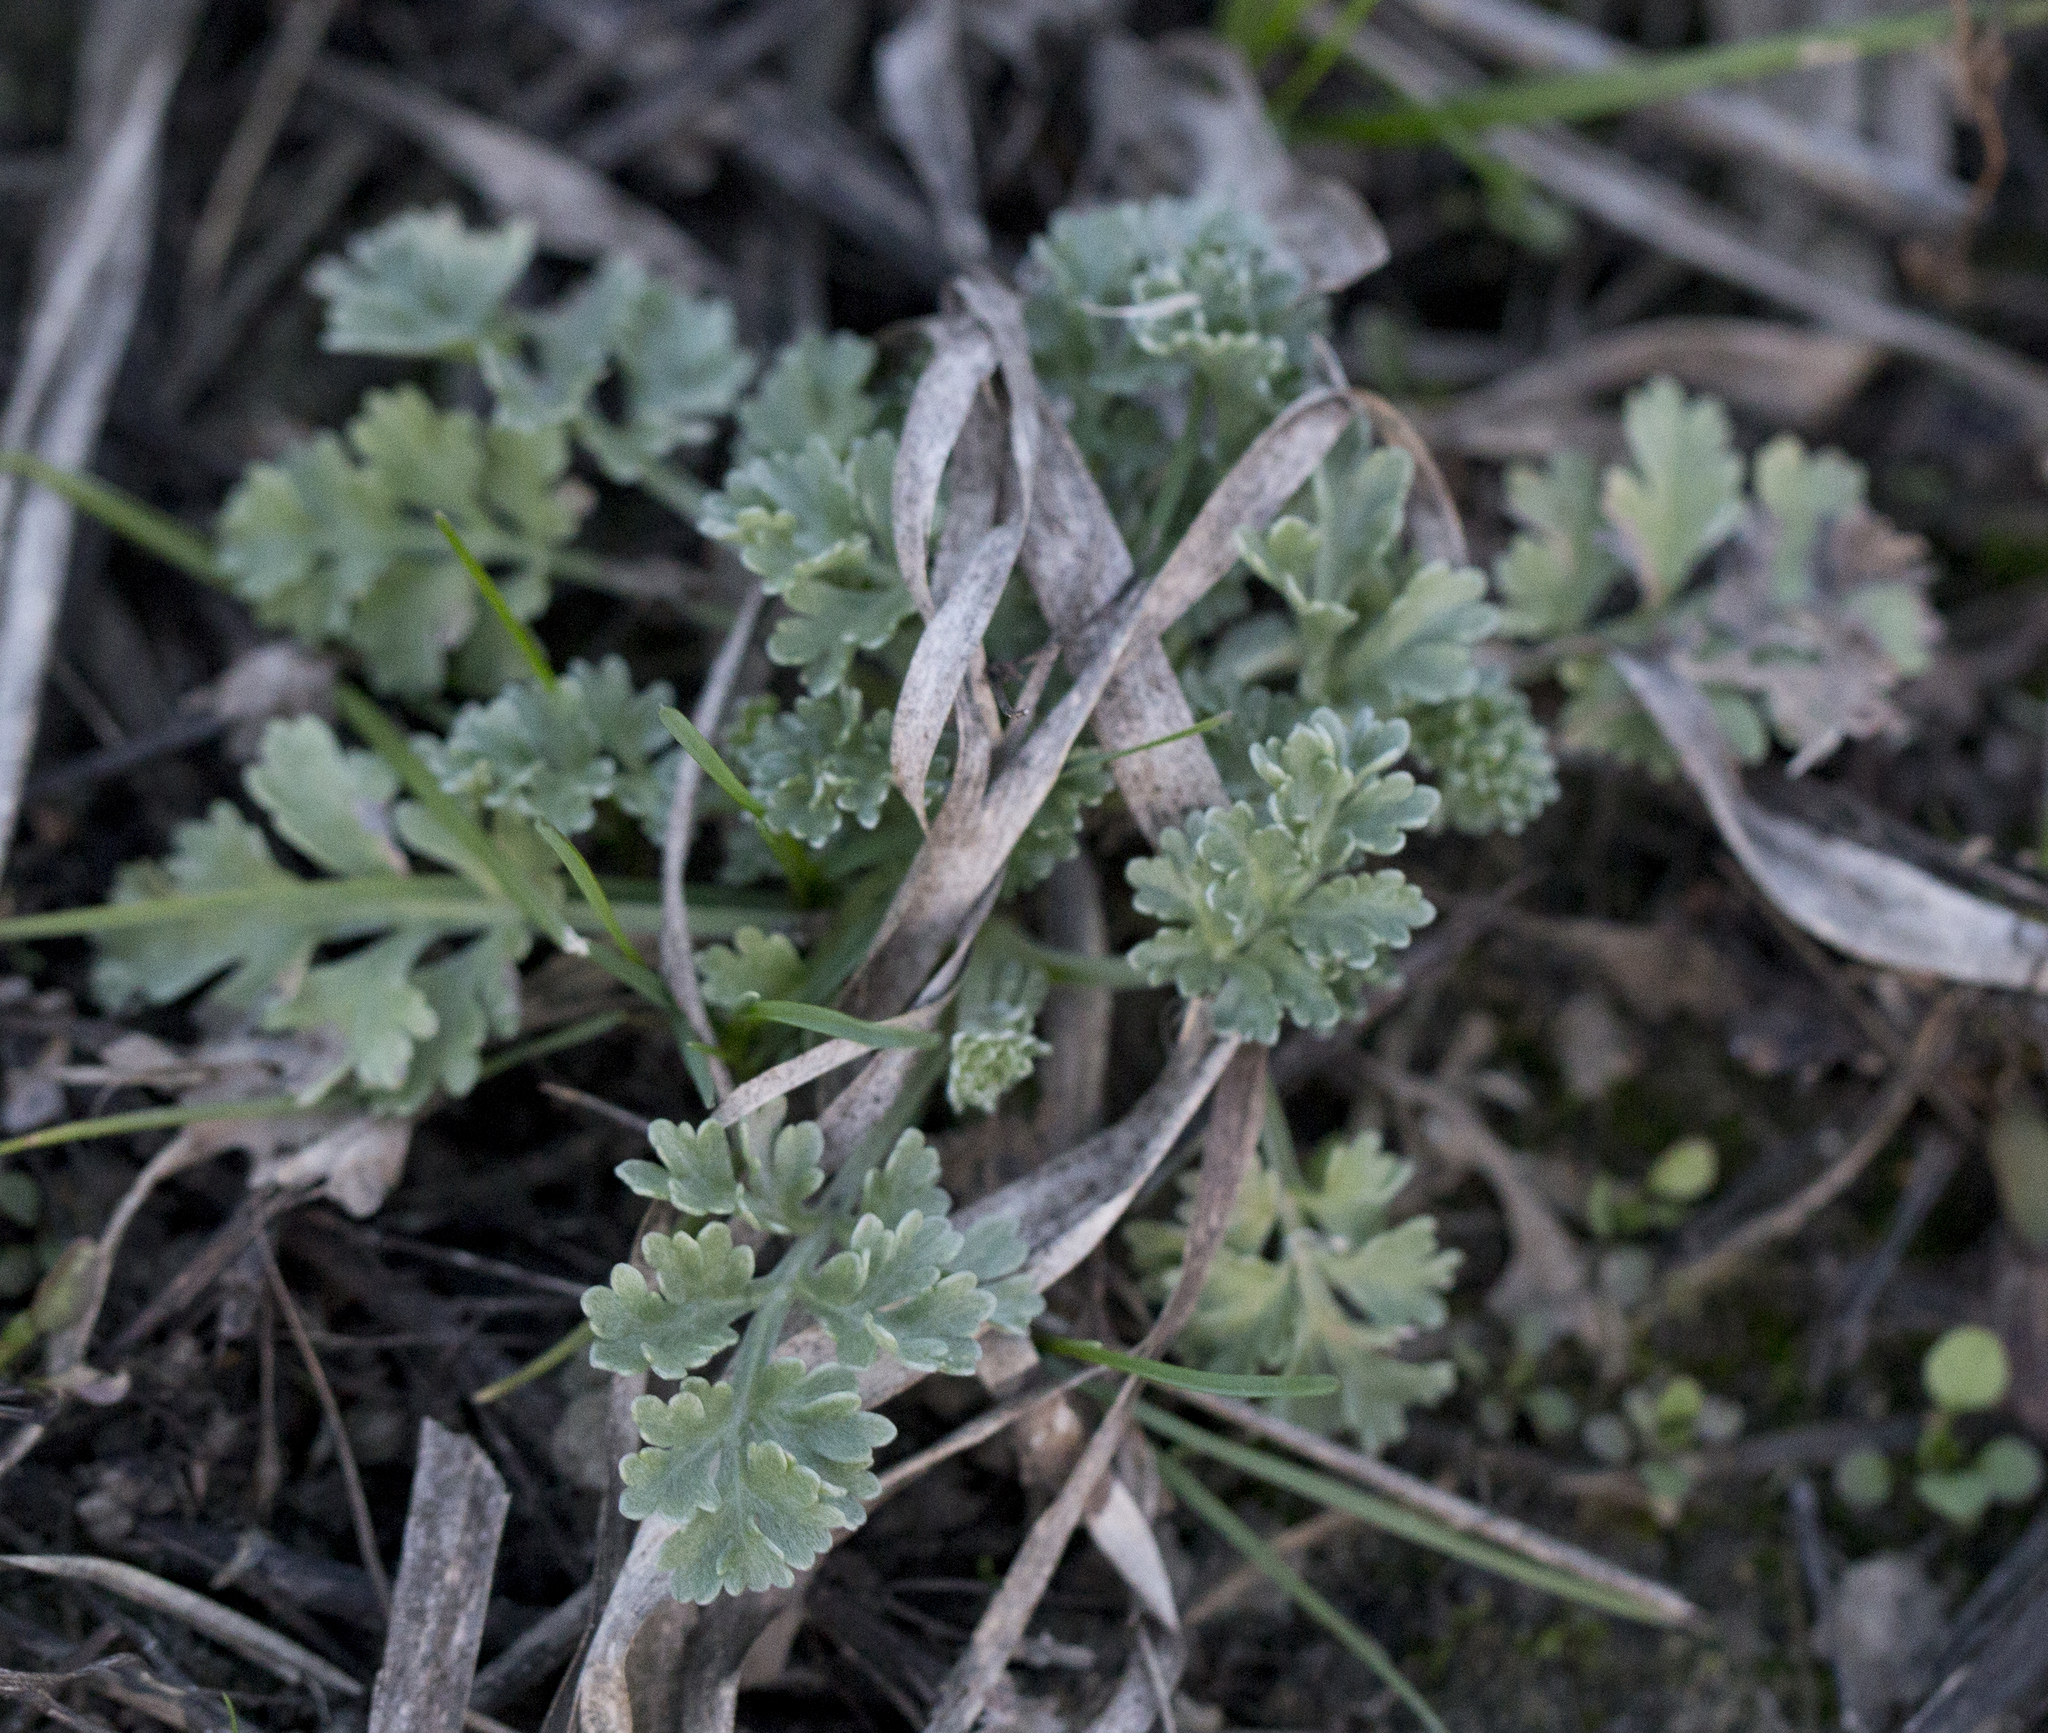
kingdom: Plantae
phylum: Tracheophyta
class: Magnoliopsida
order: Asterales
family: Asteraceae
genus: Artemisia
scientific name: Artemisia absinthium
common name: Wormwood
